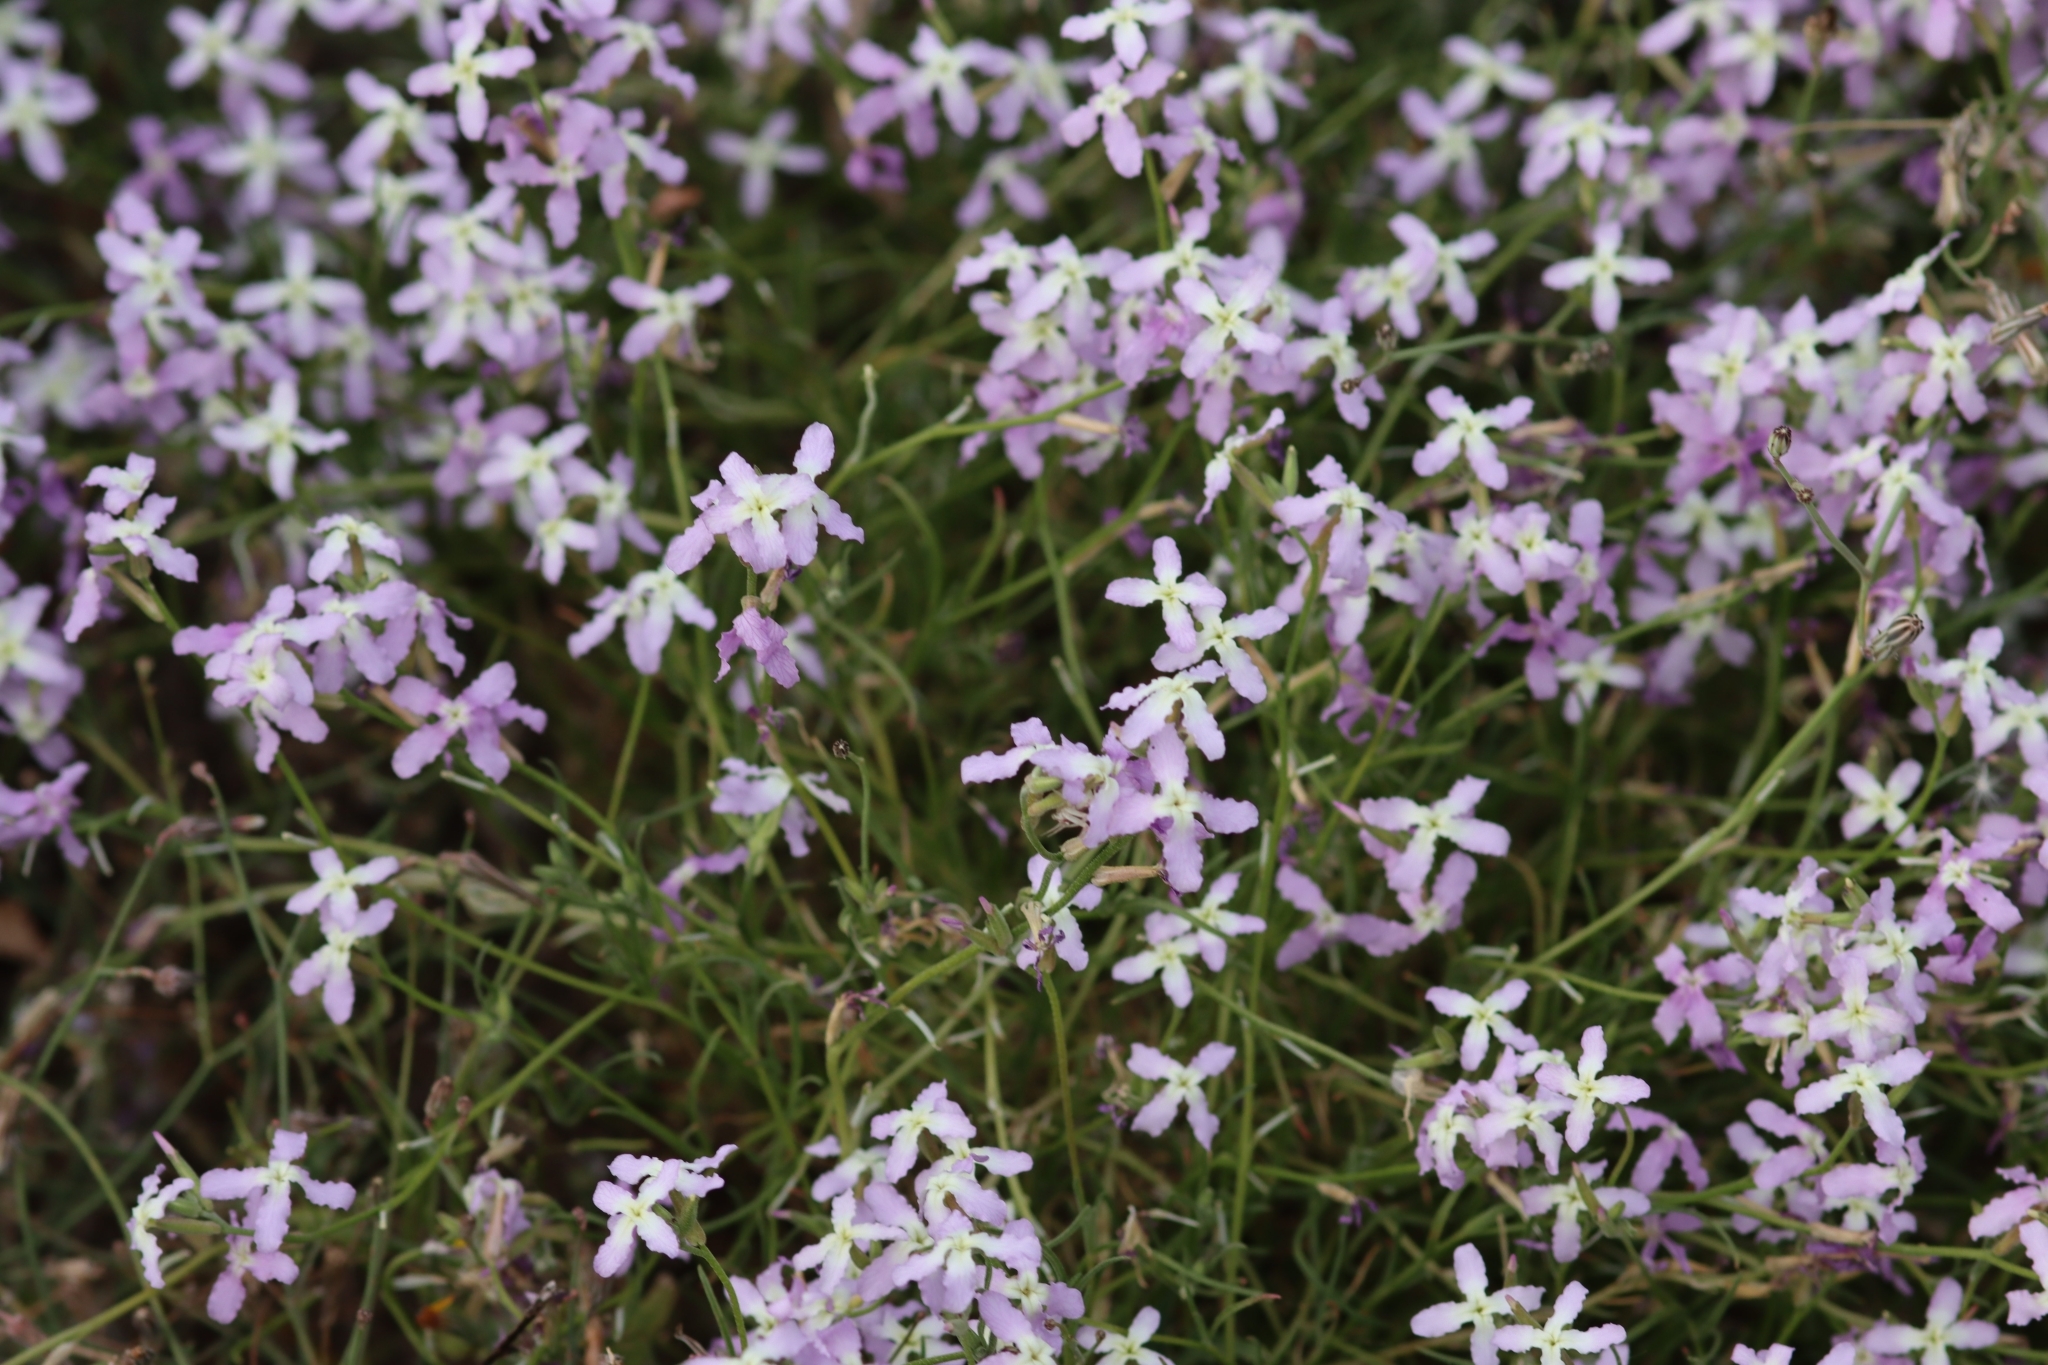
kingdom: Plantae
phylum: Tracheophyta
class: Magnoliopsida
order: Brassicales
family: Brassicaceae
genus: Matthiola
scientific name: Matthiola bolleana
